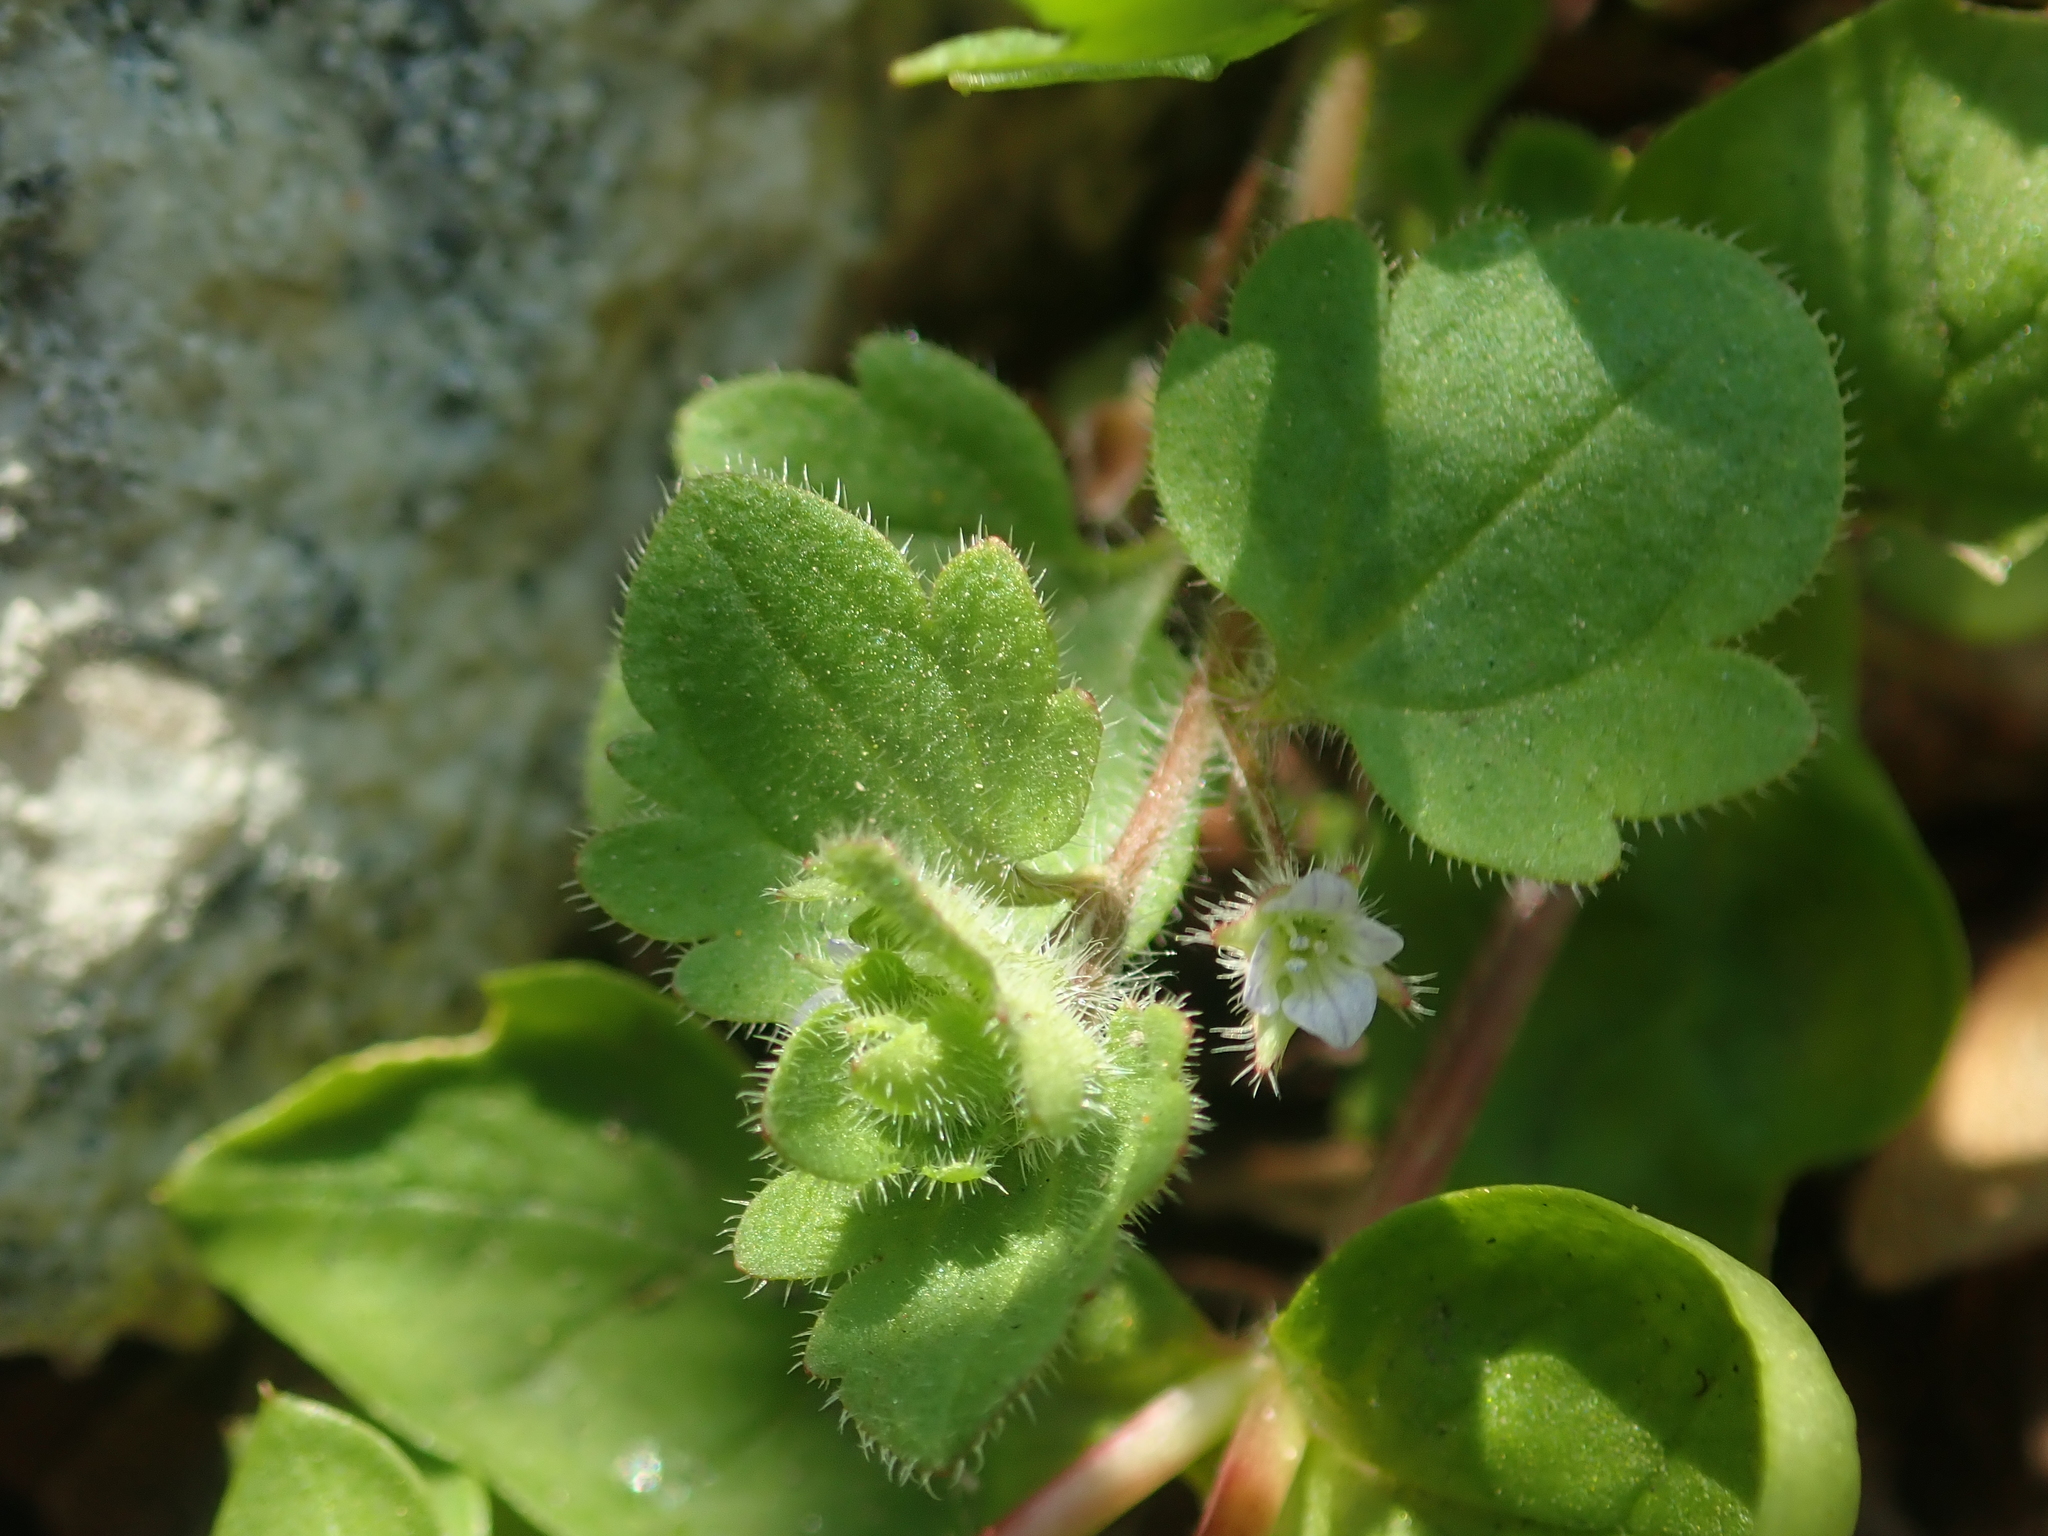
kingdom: Plantae
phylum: Tracheophyta
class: Magnoliopsida
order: Lamiales
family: Plantaginaceae
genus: Veronica
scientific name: Veronica sublobata
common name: False ivy-leaved speedwell
